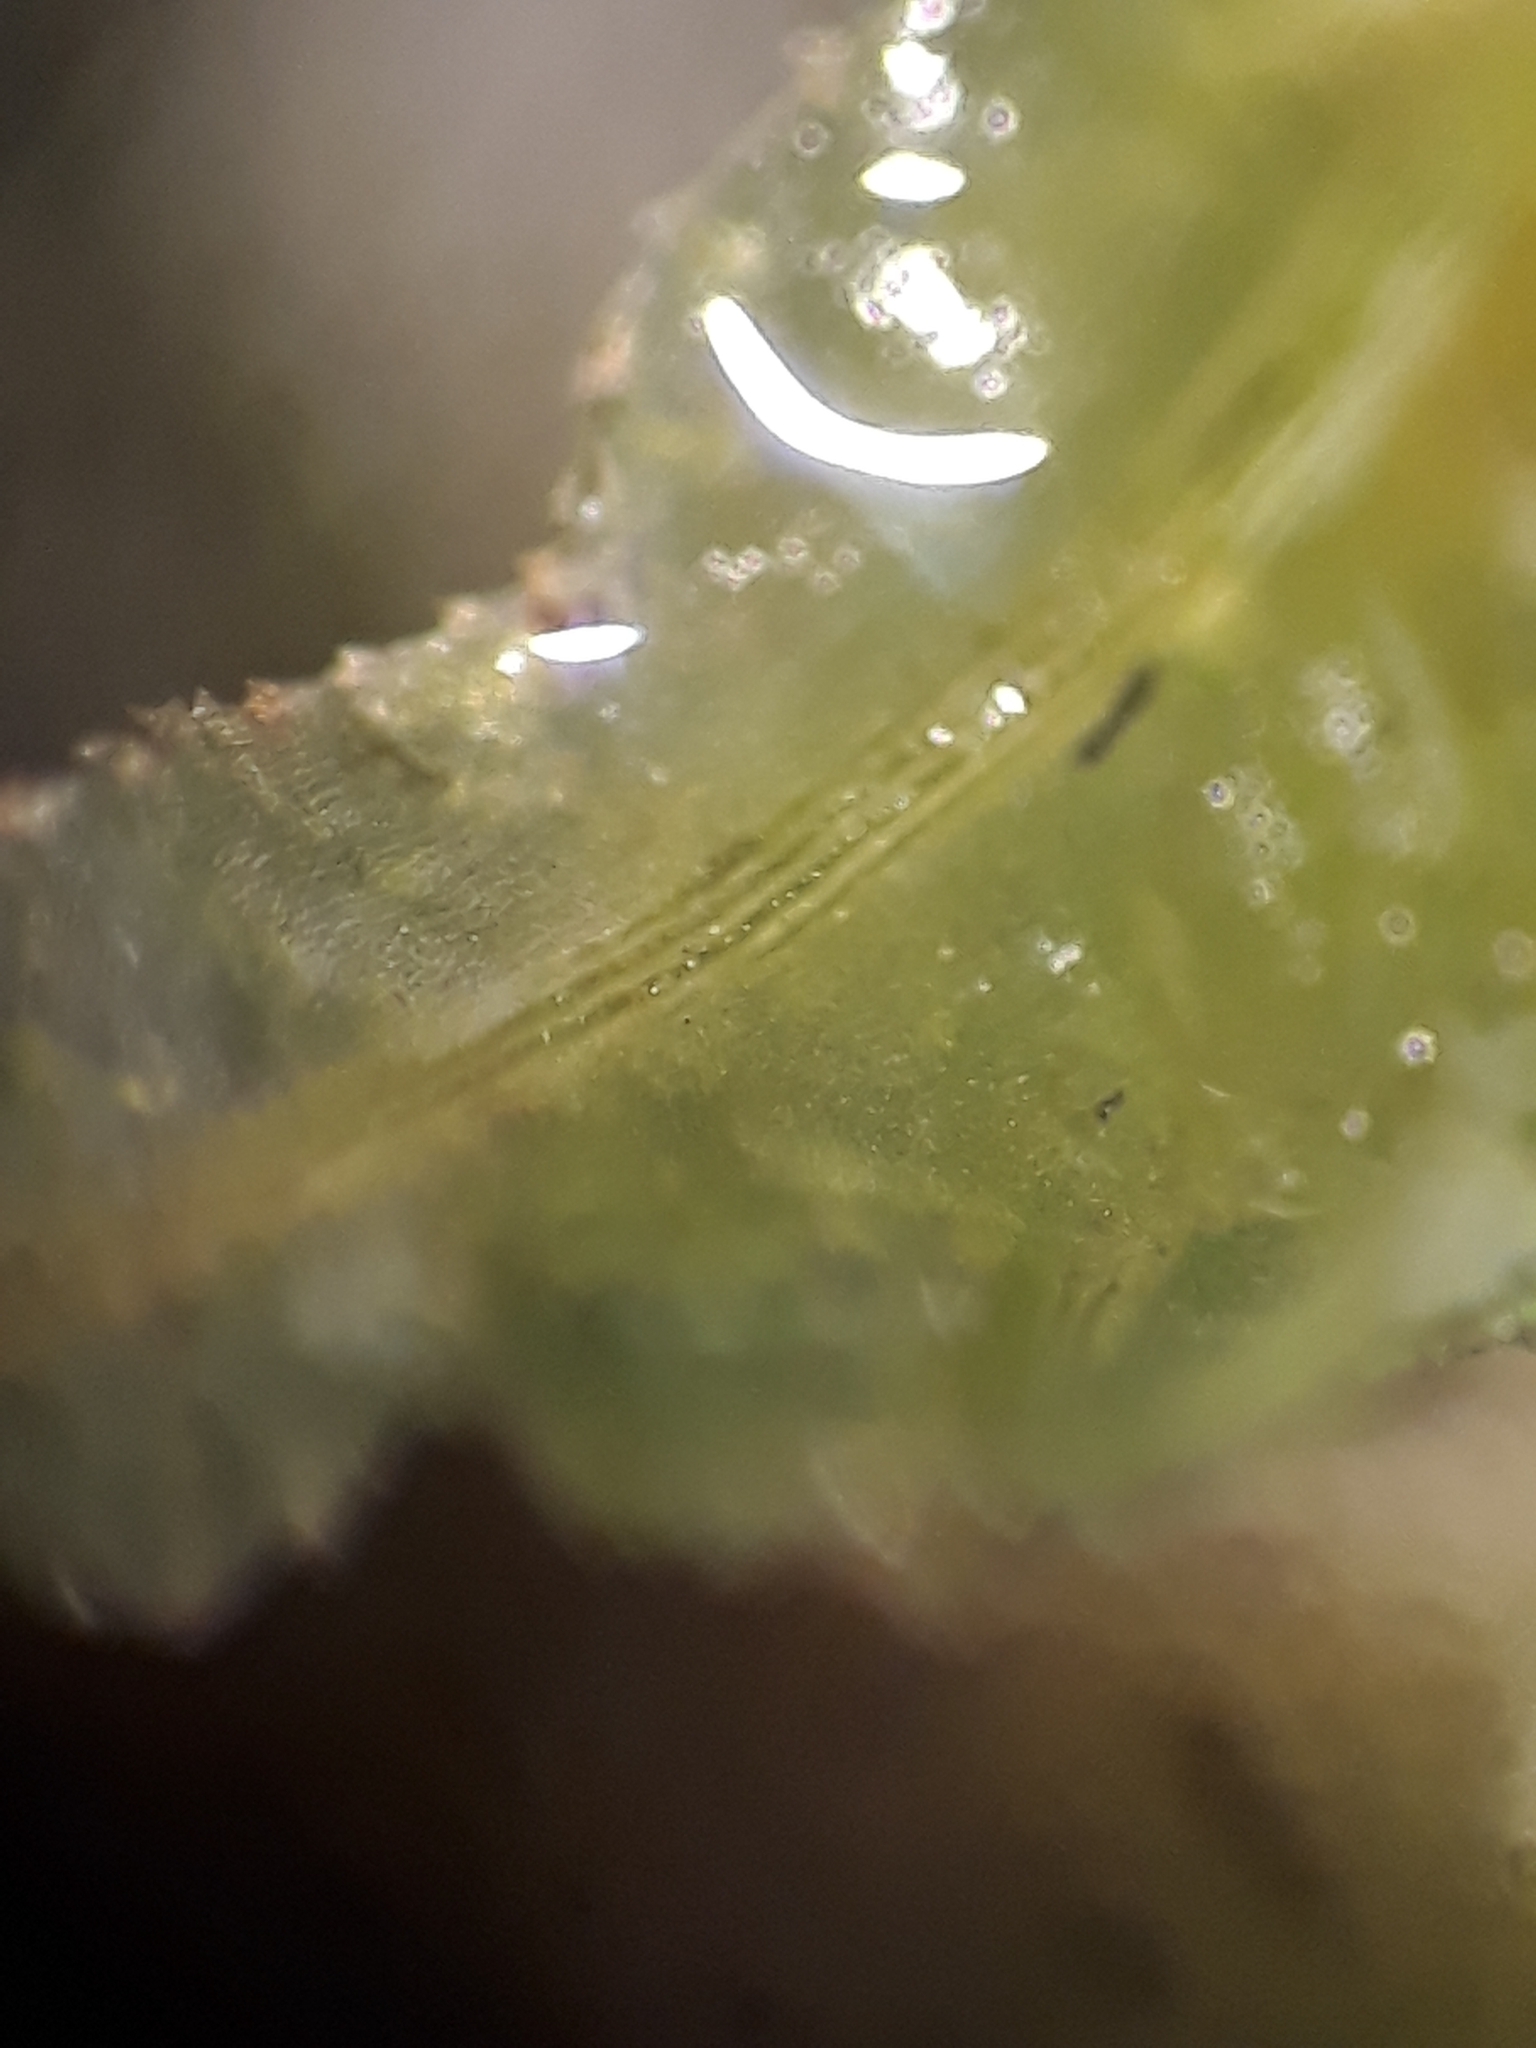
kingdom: Plantae
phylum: Bryophyta
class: Polytrichopsida
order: Polytrichales
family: Polytrichaceae
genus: Atrichum
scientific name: Atrichum androgynum
